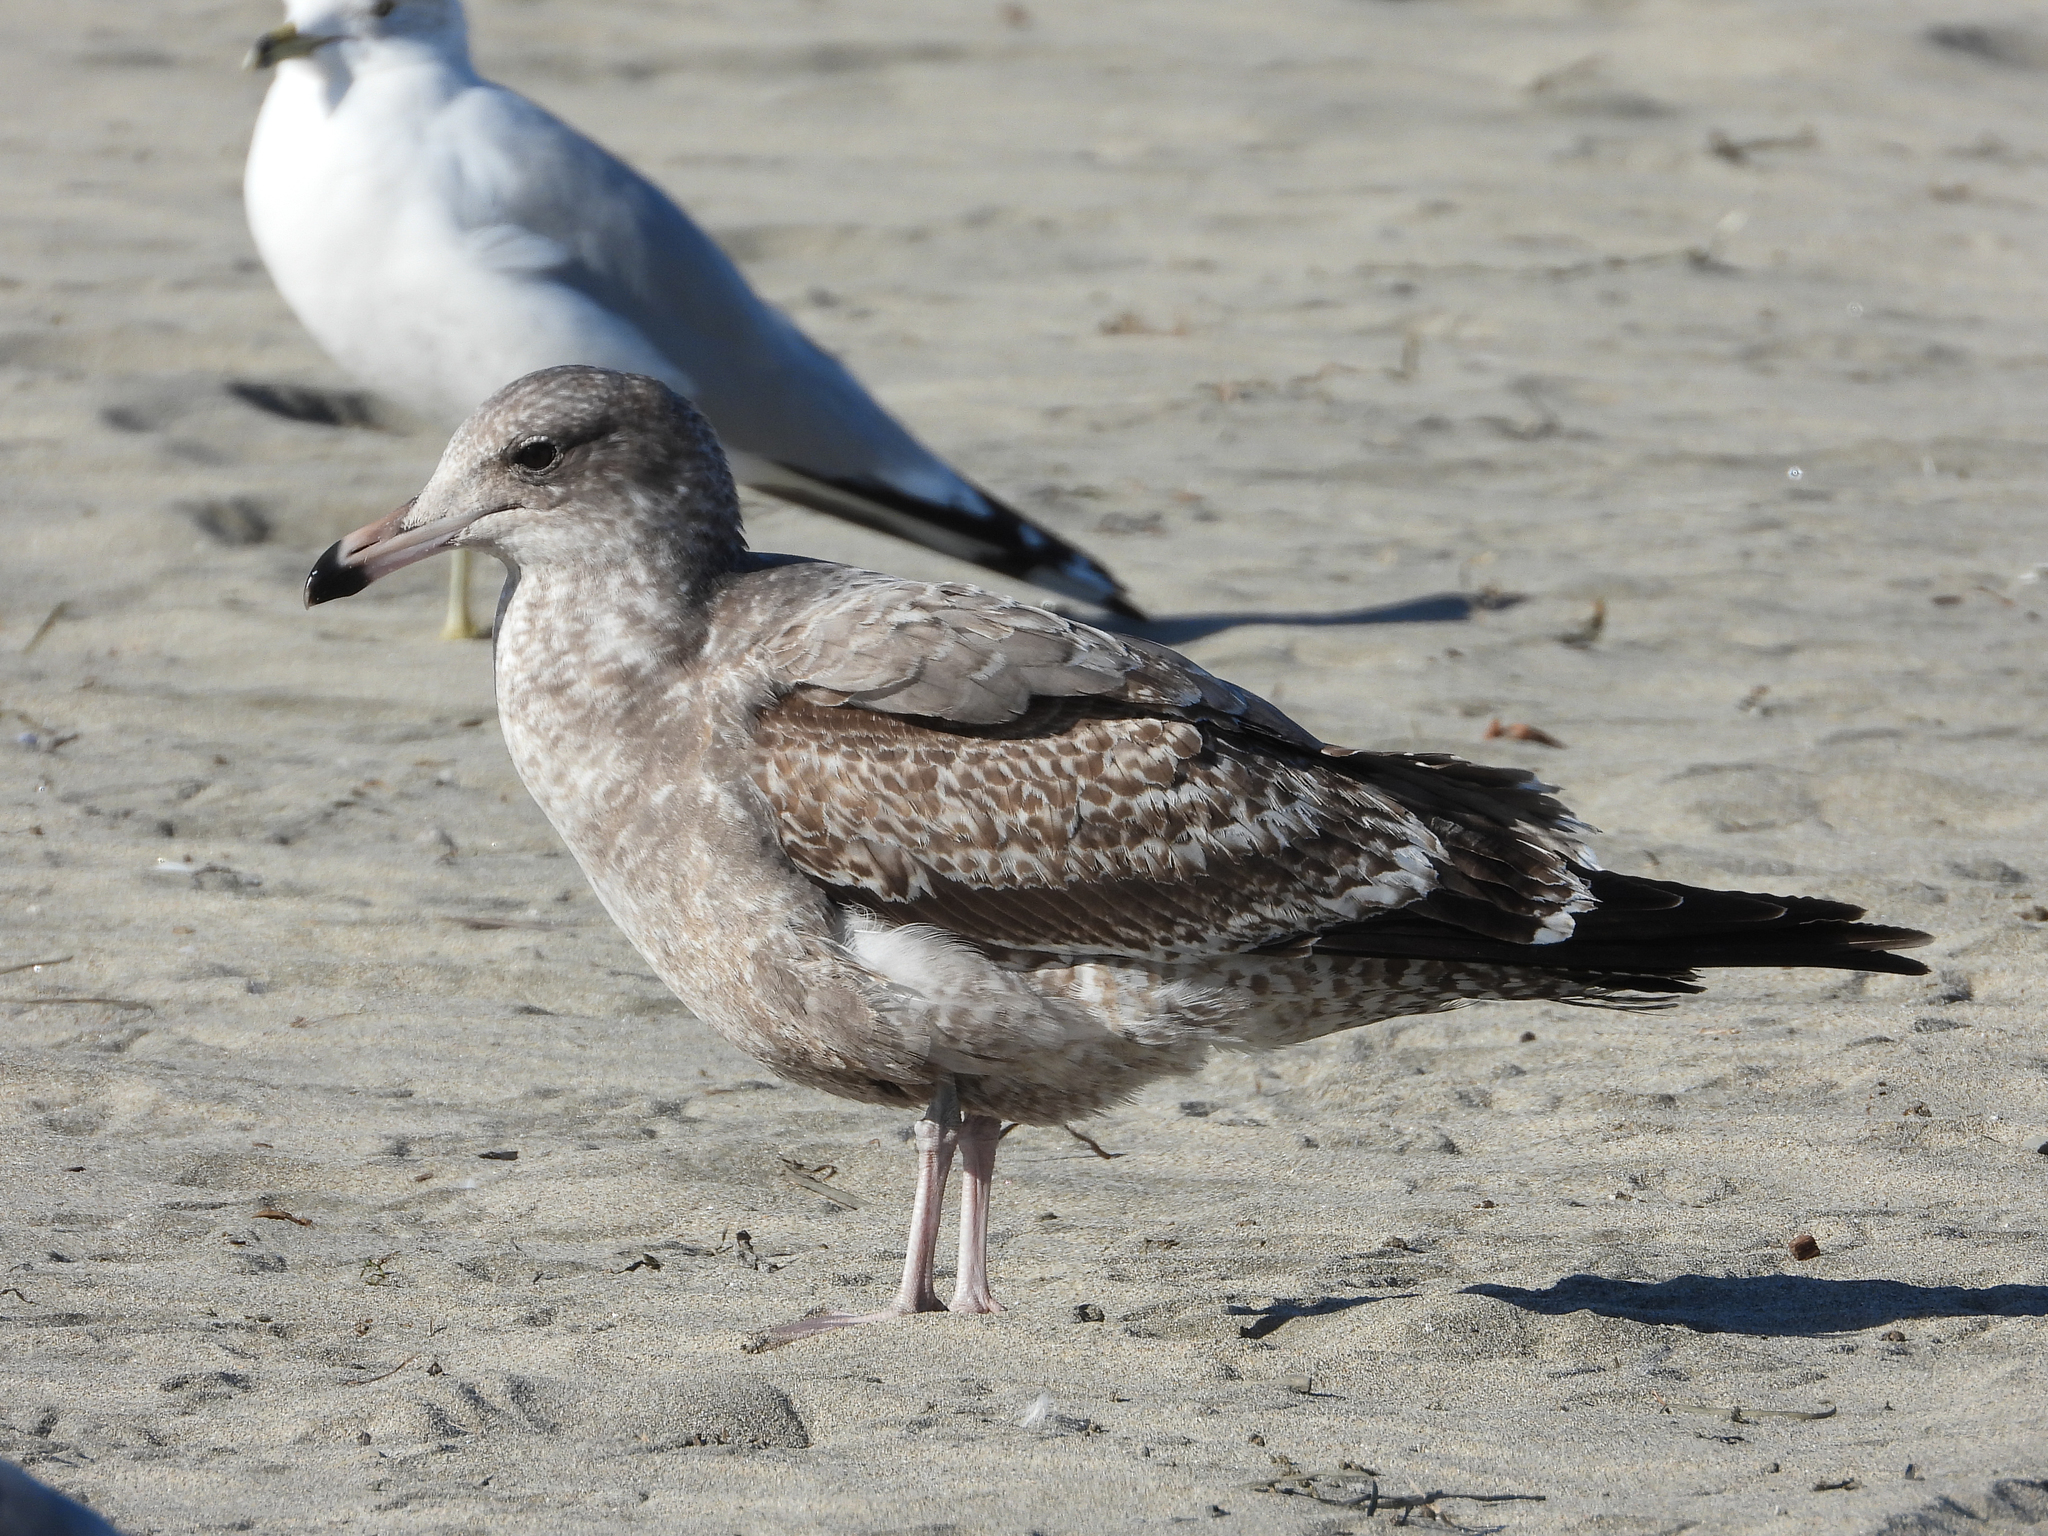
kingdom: Animalia
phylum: Chordata
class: Aves
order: Charadriiformes
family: Laridae
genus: Larus
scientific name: Larus californicus
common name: California gull
